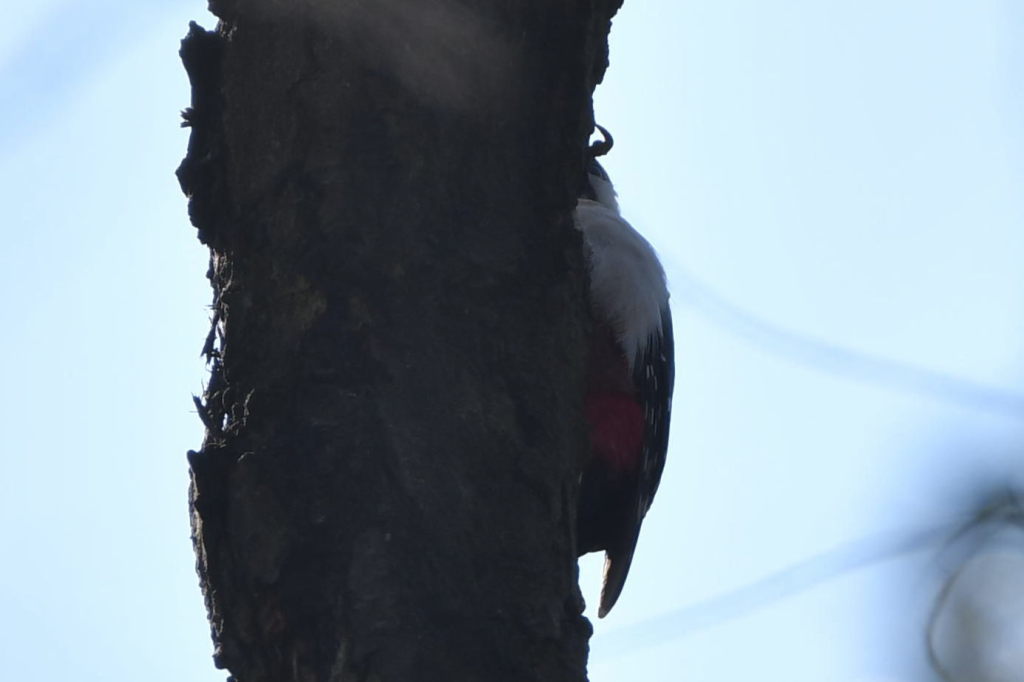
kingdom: Animalia
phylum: Chordata
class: Aves
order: Piciformes
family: Picidae
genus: Dendrocopos
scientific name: Dendrocopos major
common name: Great spotted woodpecker
